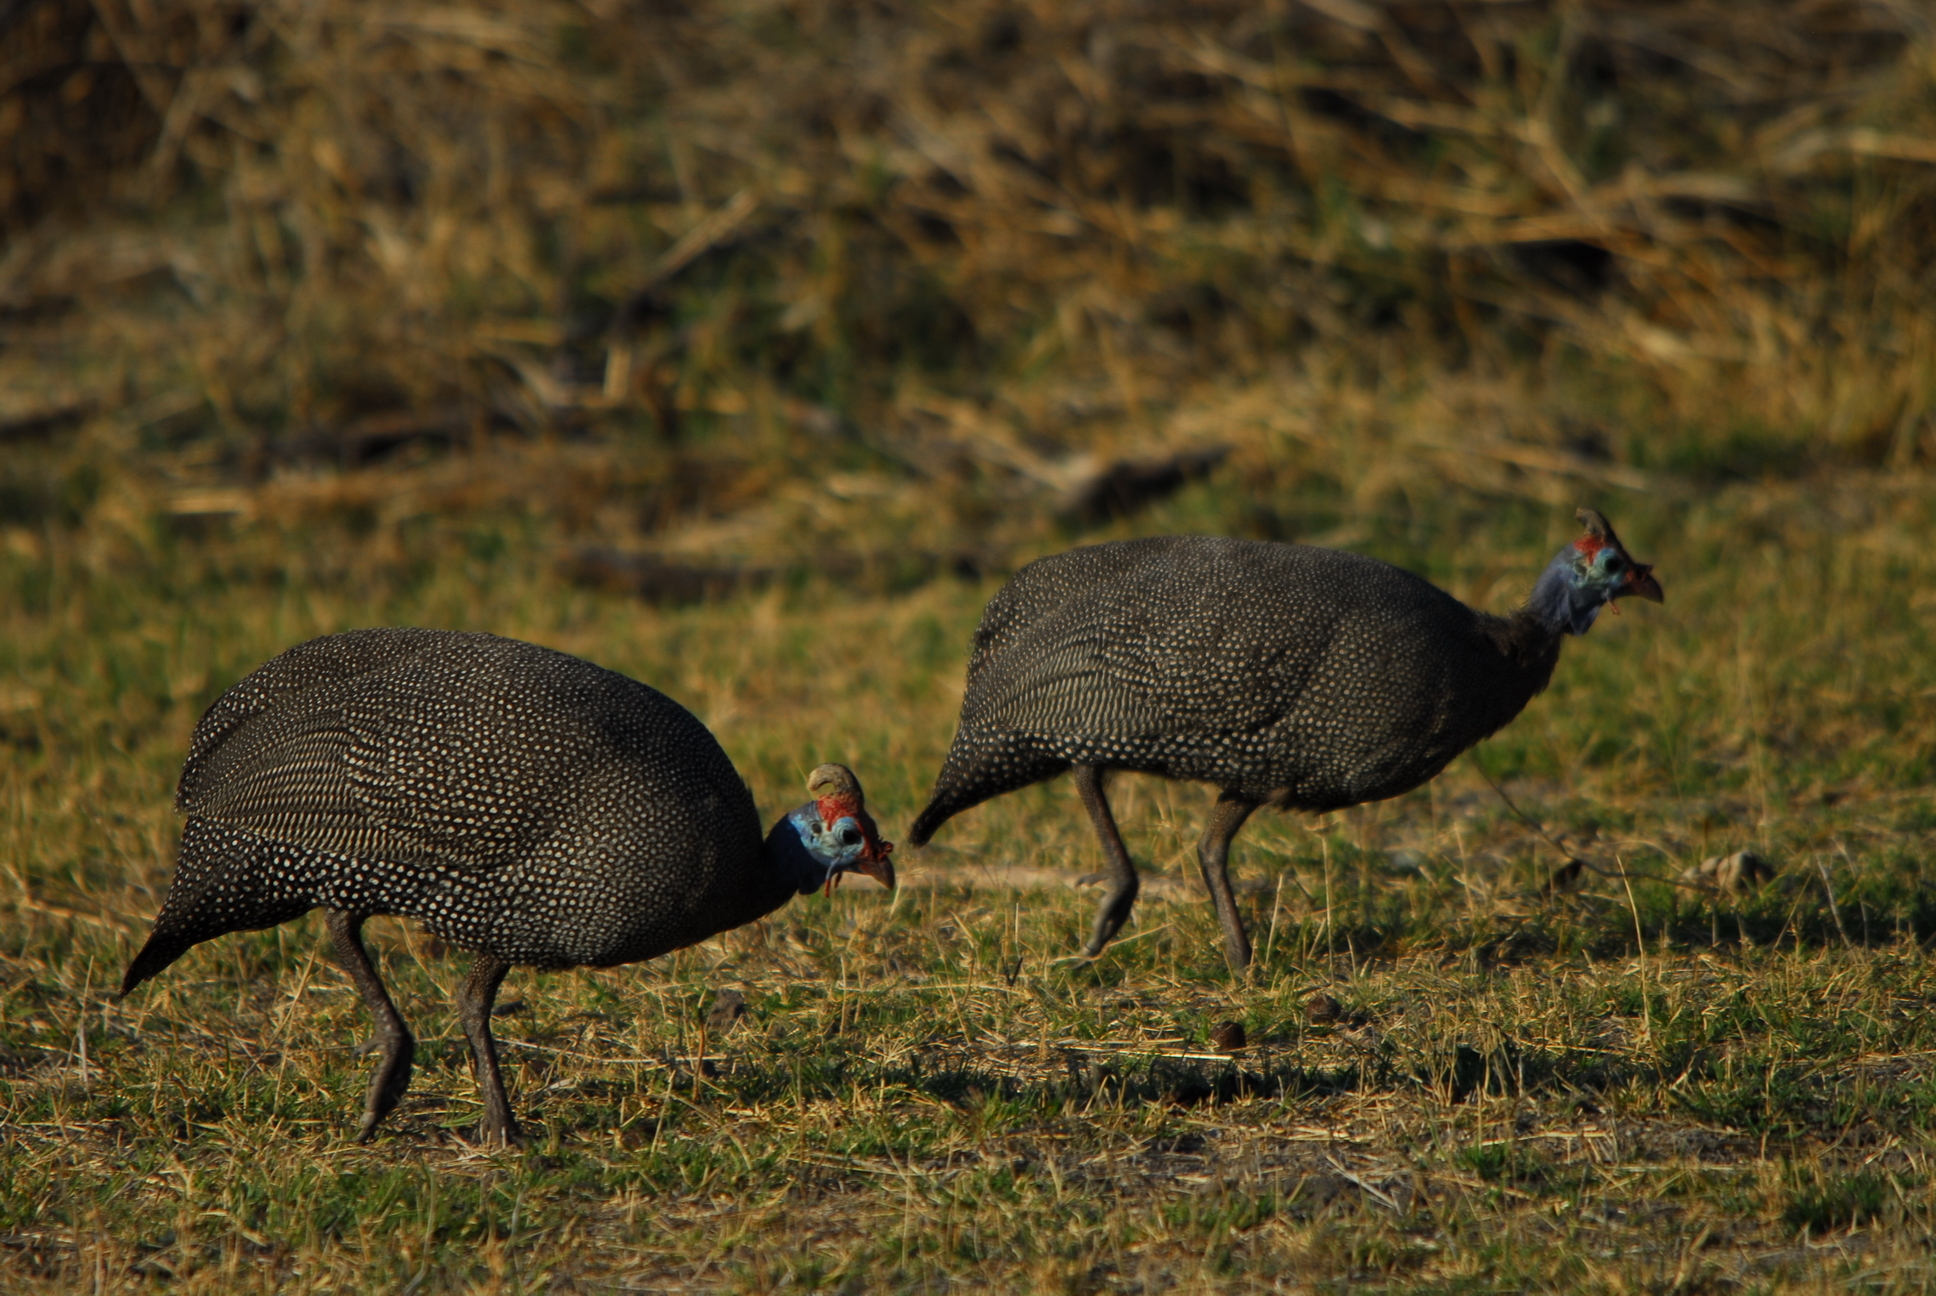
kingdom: Animalia
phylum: Chordata
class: Aves
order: Galliformes
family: Numididae
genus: Numida
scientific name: Numida meleagris
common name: Helmeted guineafowl
